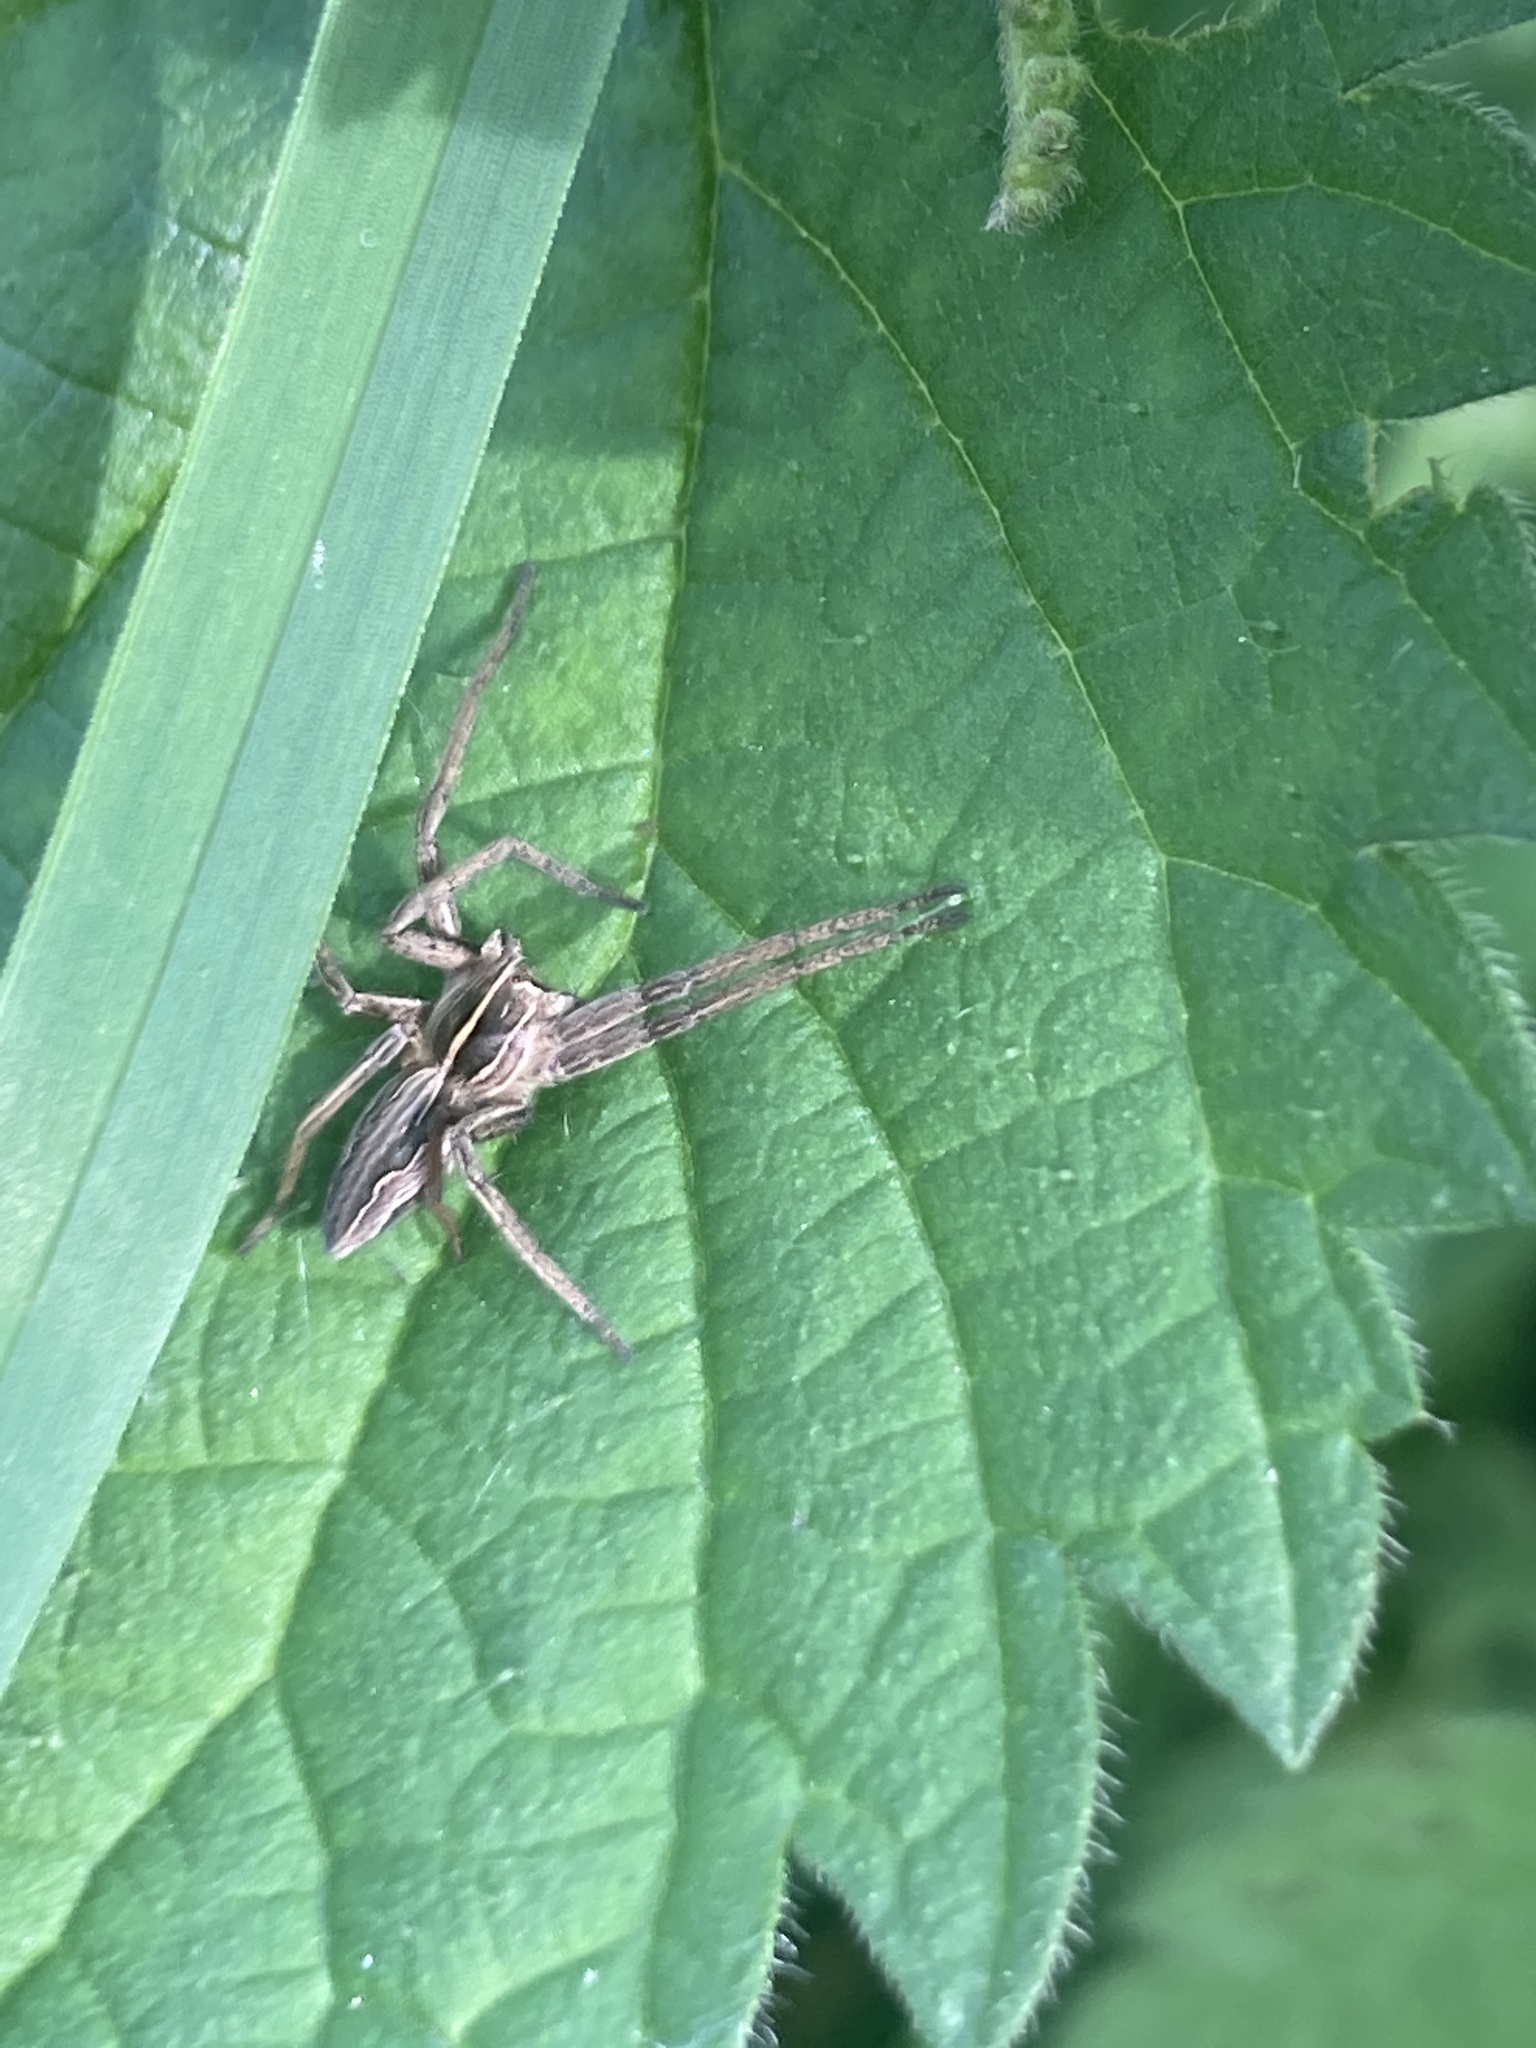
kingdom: Animalia
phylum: Arthropoda
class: Arachnida
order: Araneae
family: Pisauridae
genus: Pisaura
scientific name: Pisaura mirabilis
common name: Tent spider
